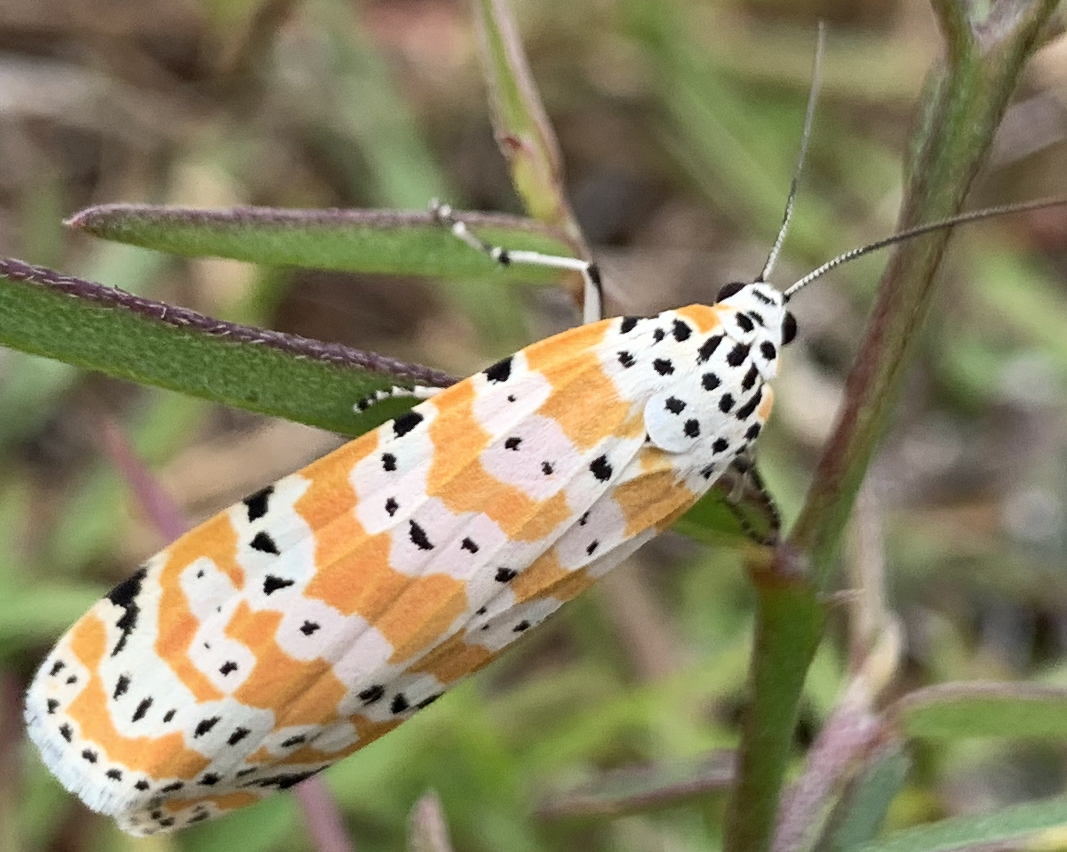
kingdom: Animalia
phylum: Arthropoda
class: Insecta
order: Lepidoptera
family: Erebidae
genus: Utetheisa
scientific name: Utetheisa ornatrix
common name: Beautiful utetheisa
